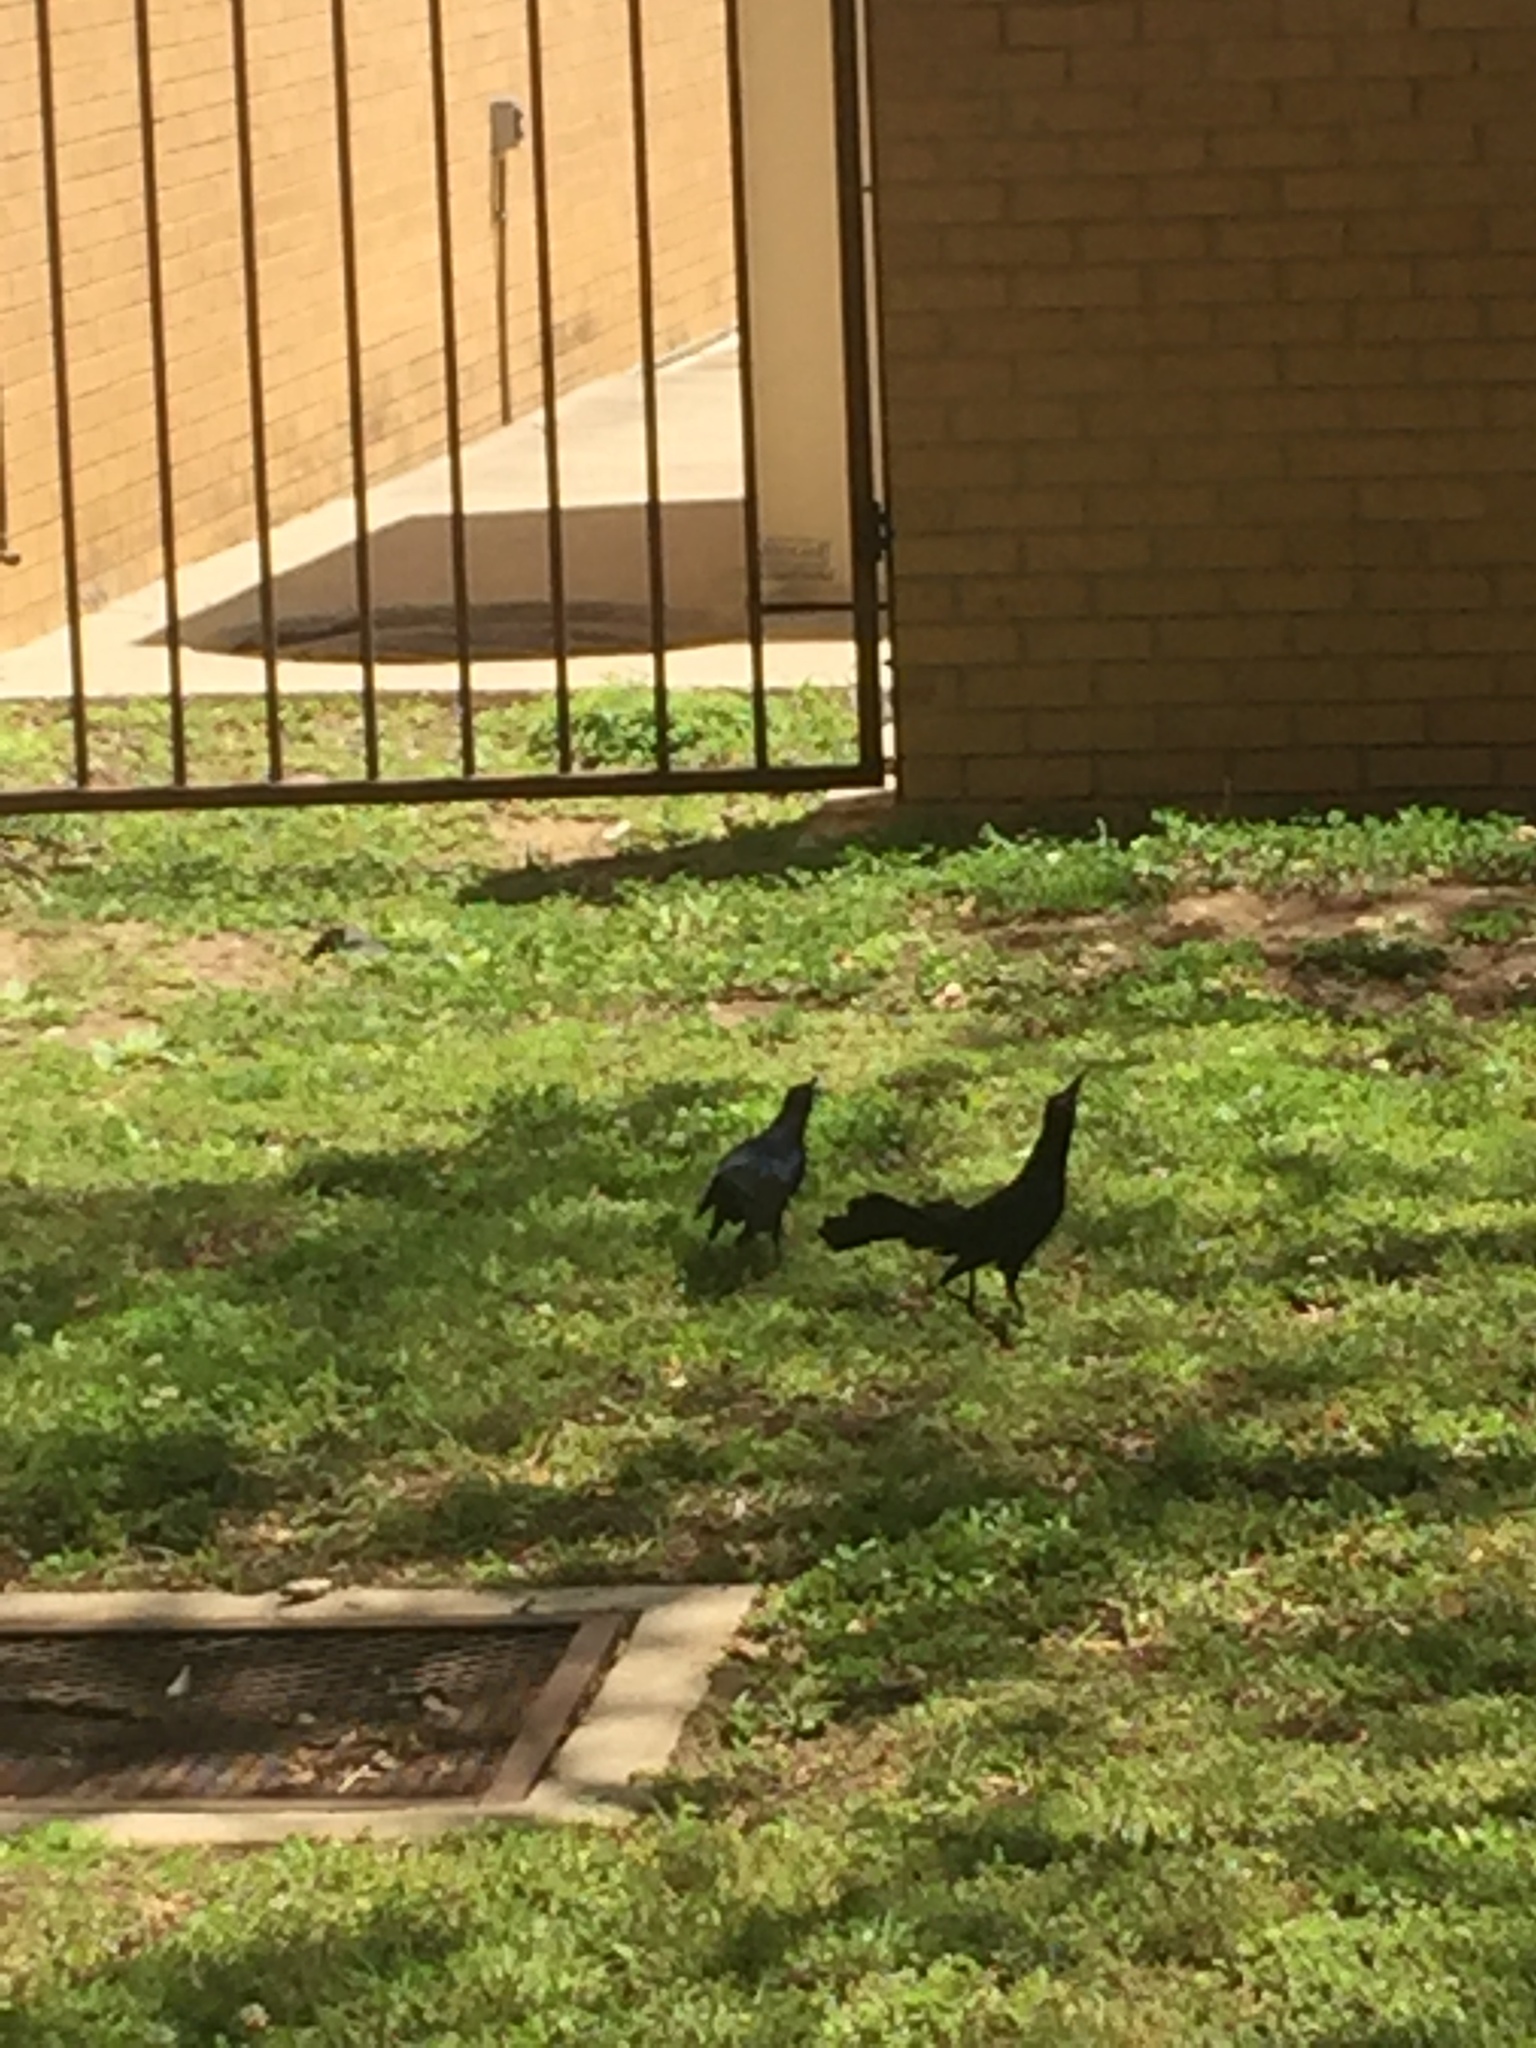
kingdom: Animalia
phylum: Chordata
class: Aves
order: Passeriformes
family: Icteridae
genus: Quiscalus
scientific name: Quiscalus mexicanus
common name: Great-tailed grackle
